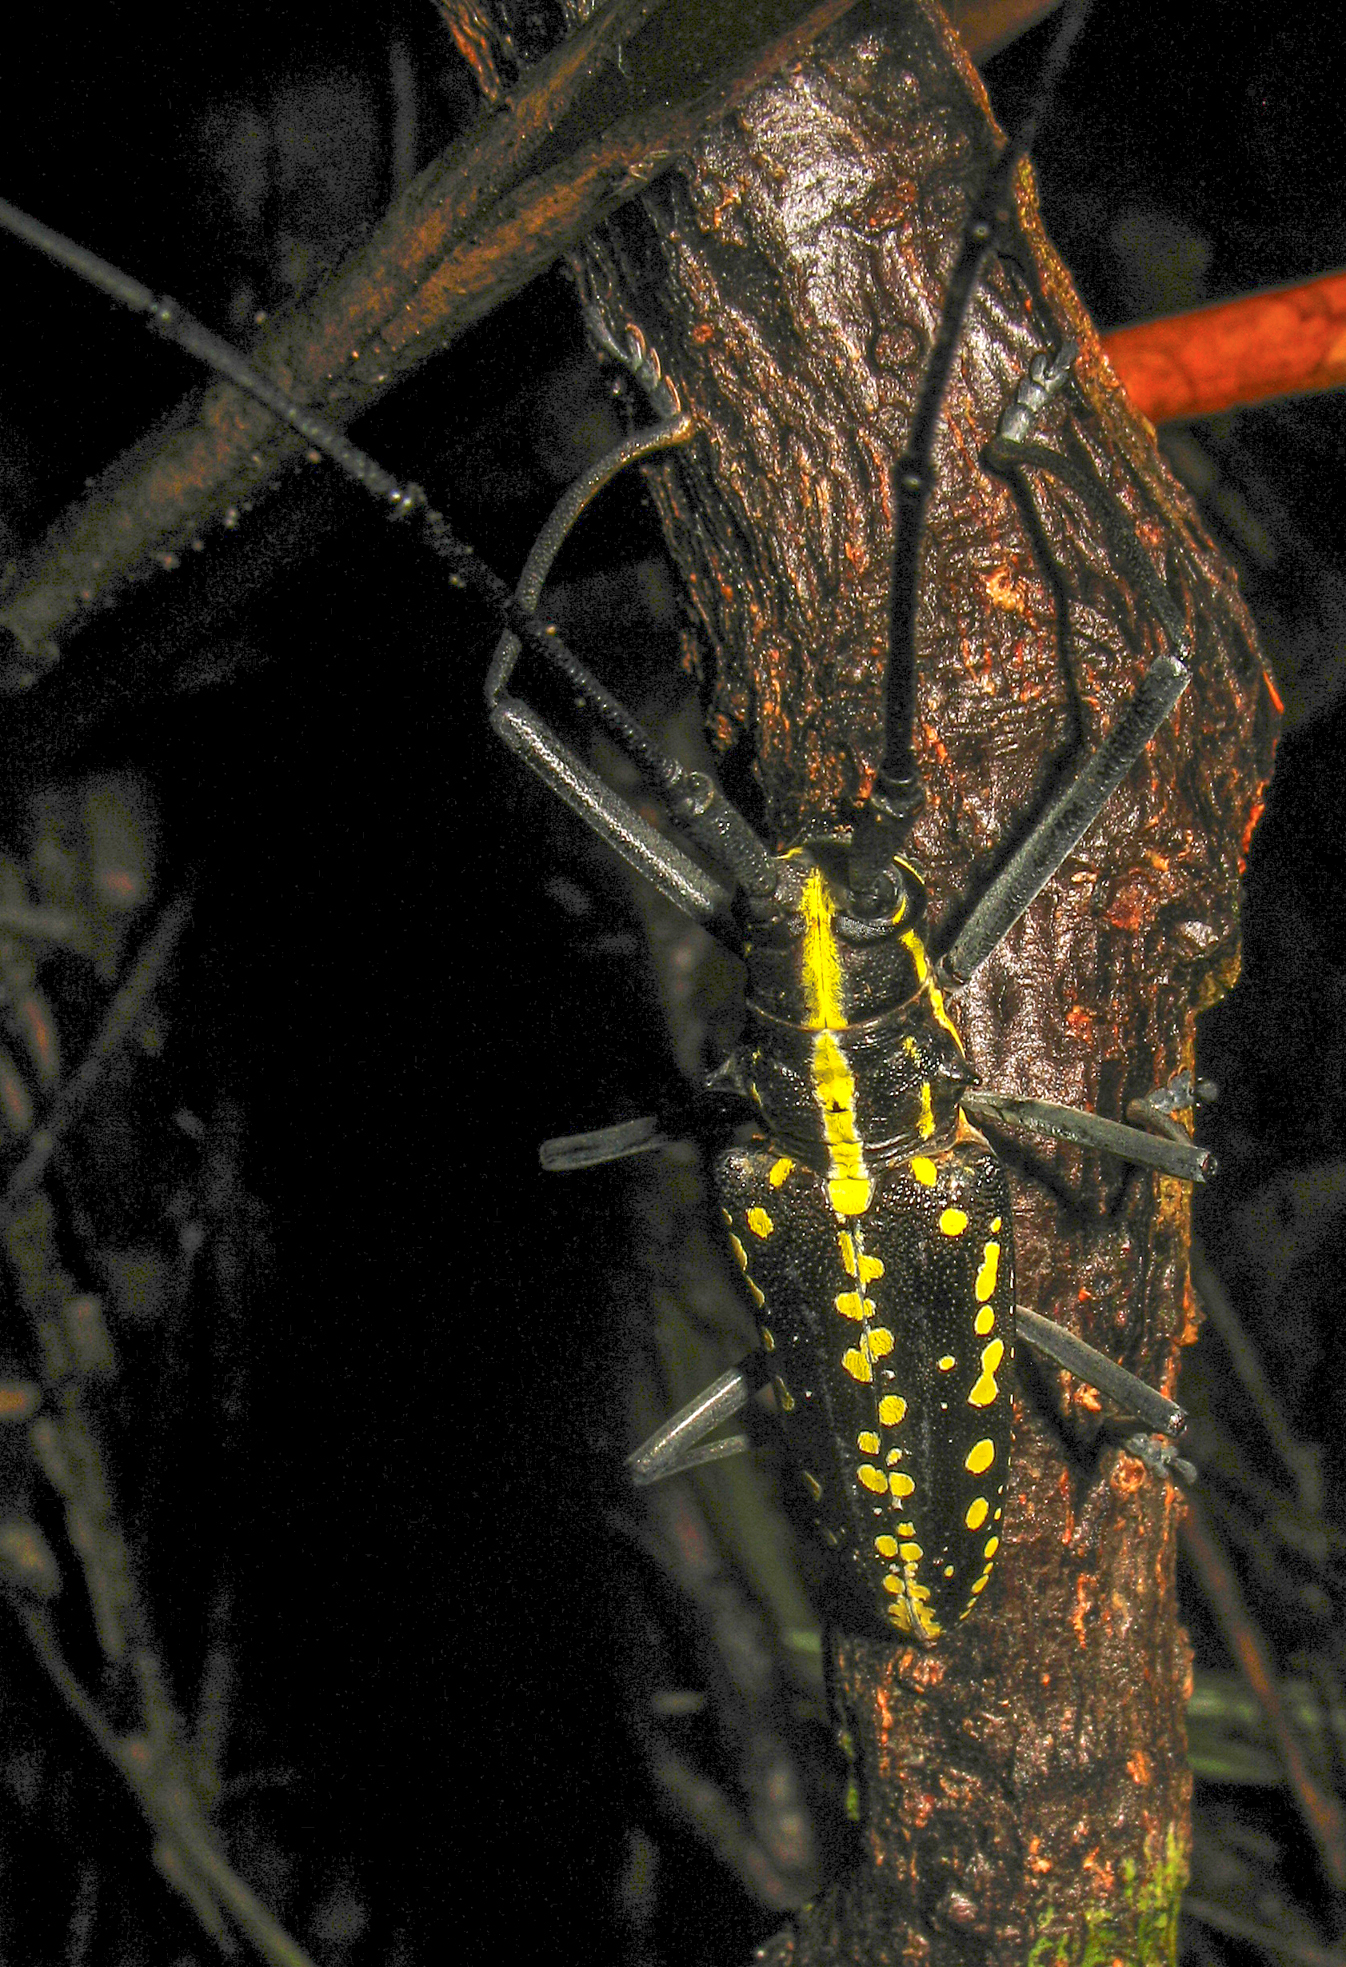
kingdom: Animalia
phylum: Arthropoda
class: Insecta
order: Coleoptera
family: Cerambycidae
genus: Taeniotes
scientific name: Taeniotes cayennensis
